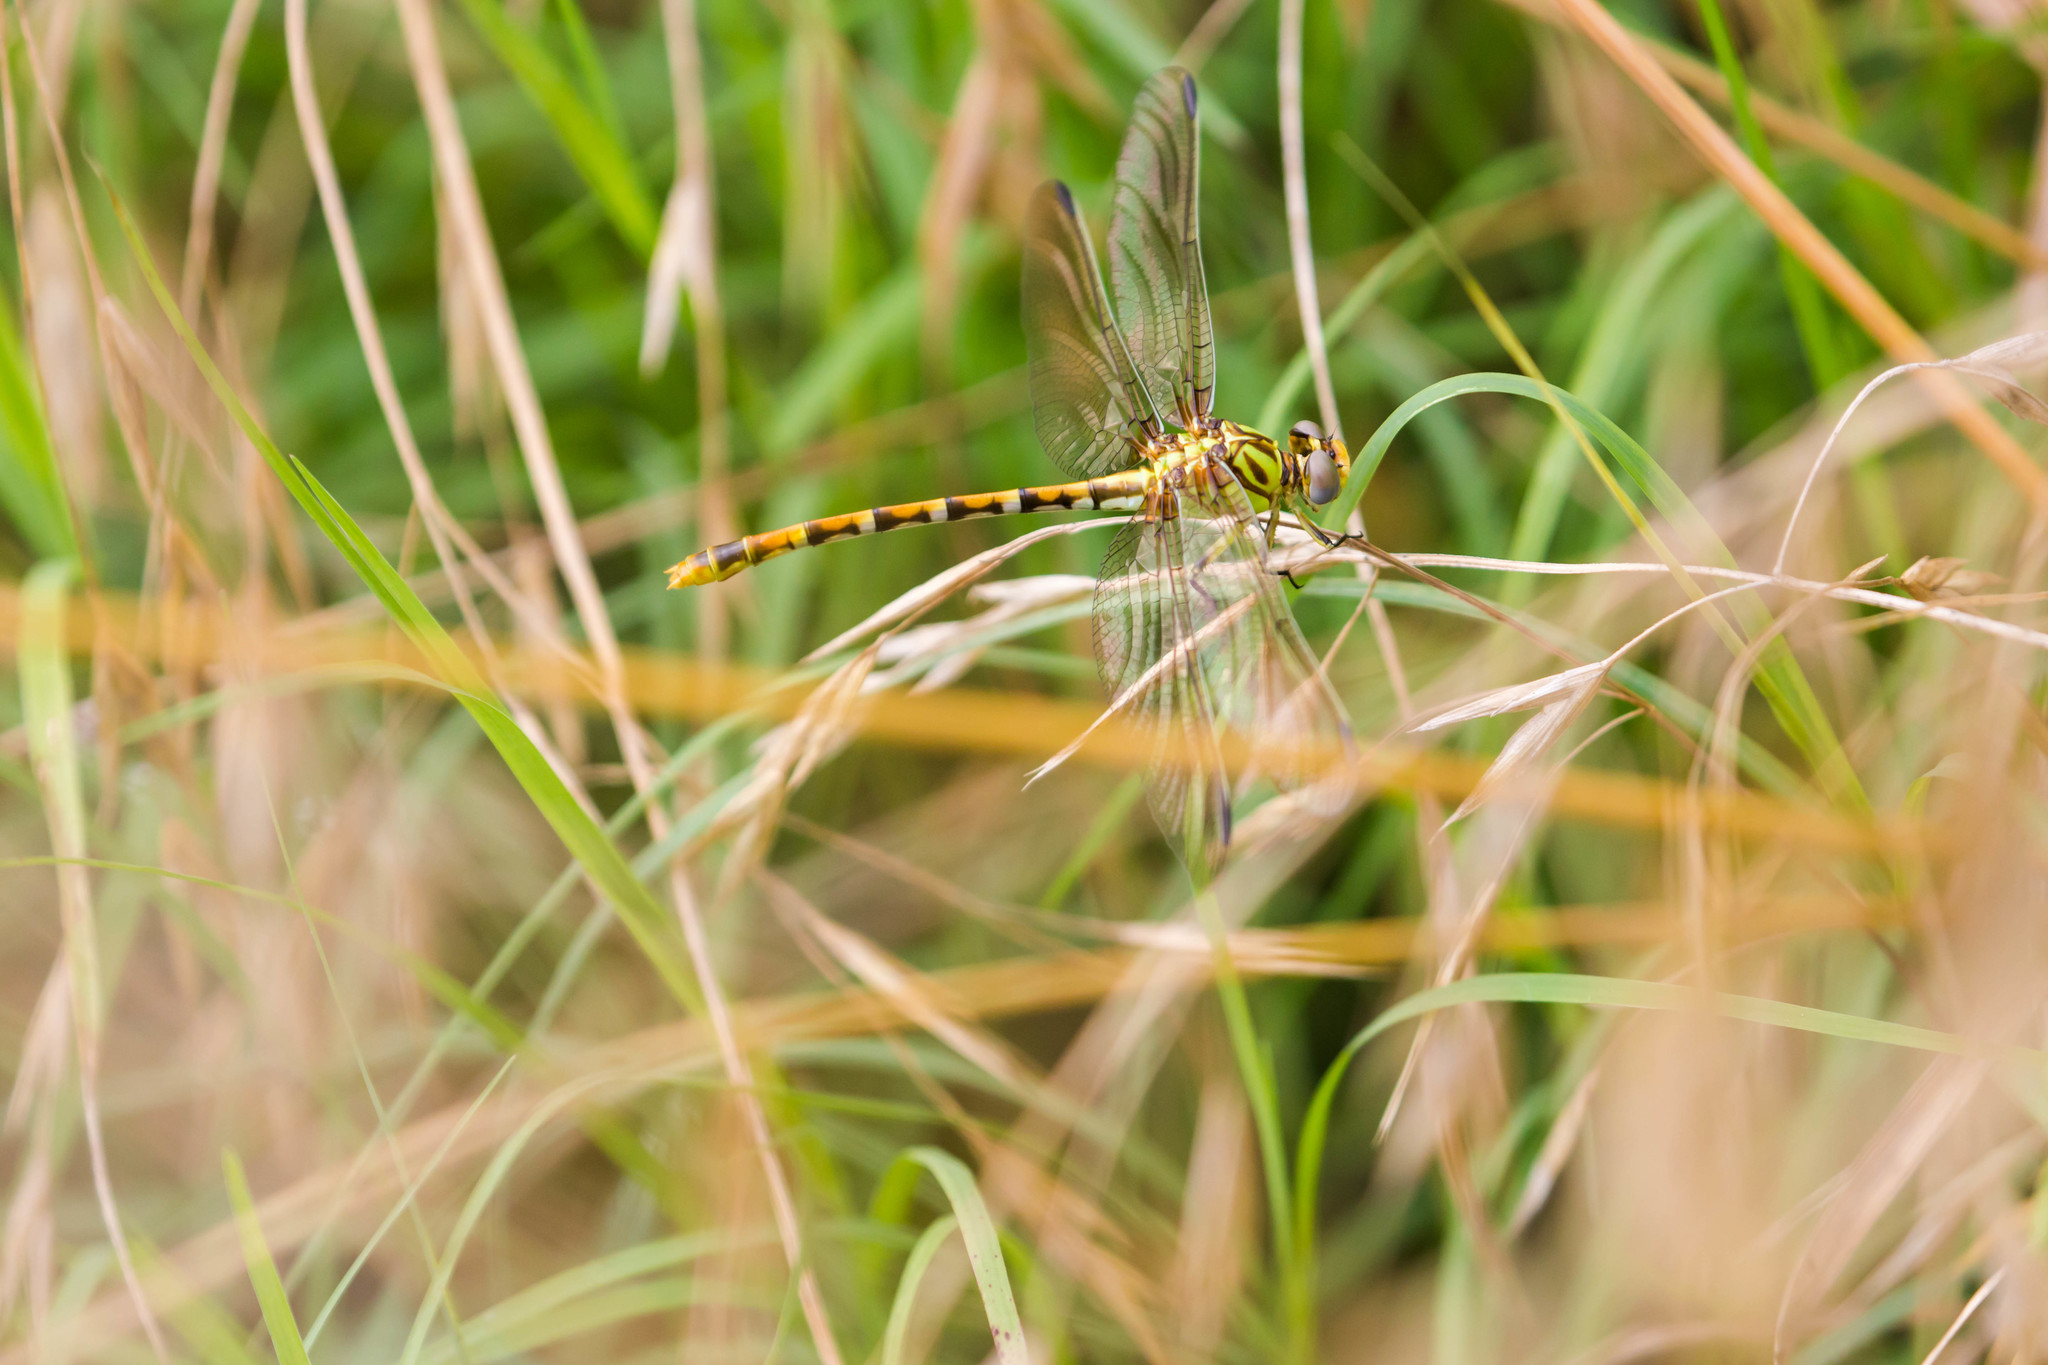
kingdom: Animalia
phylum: Arthropoda
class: Insecta
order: Odonata
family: Gomphidae
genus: Erpetogomphus
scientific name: Erpetogomphus designatus
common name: Eastern ringtail
